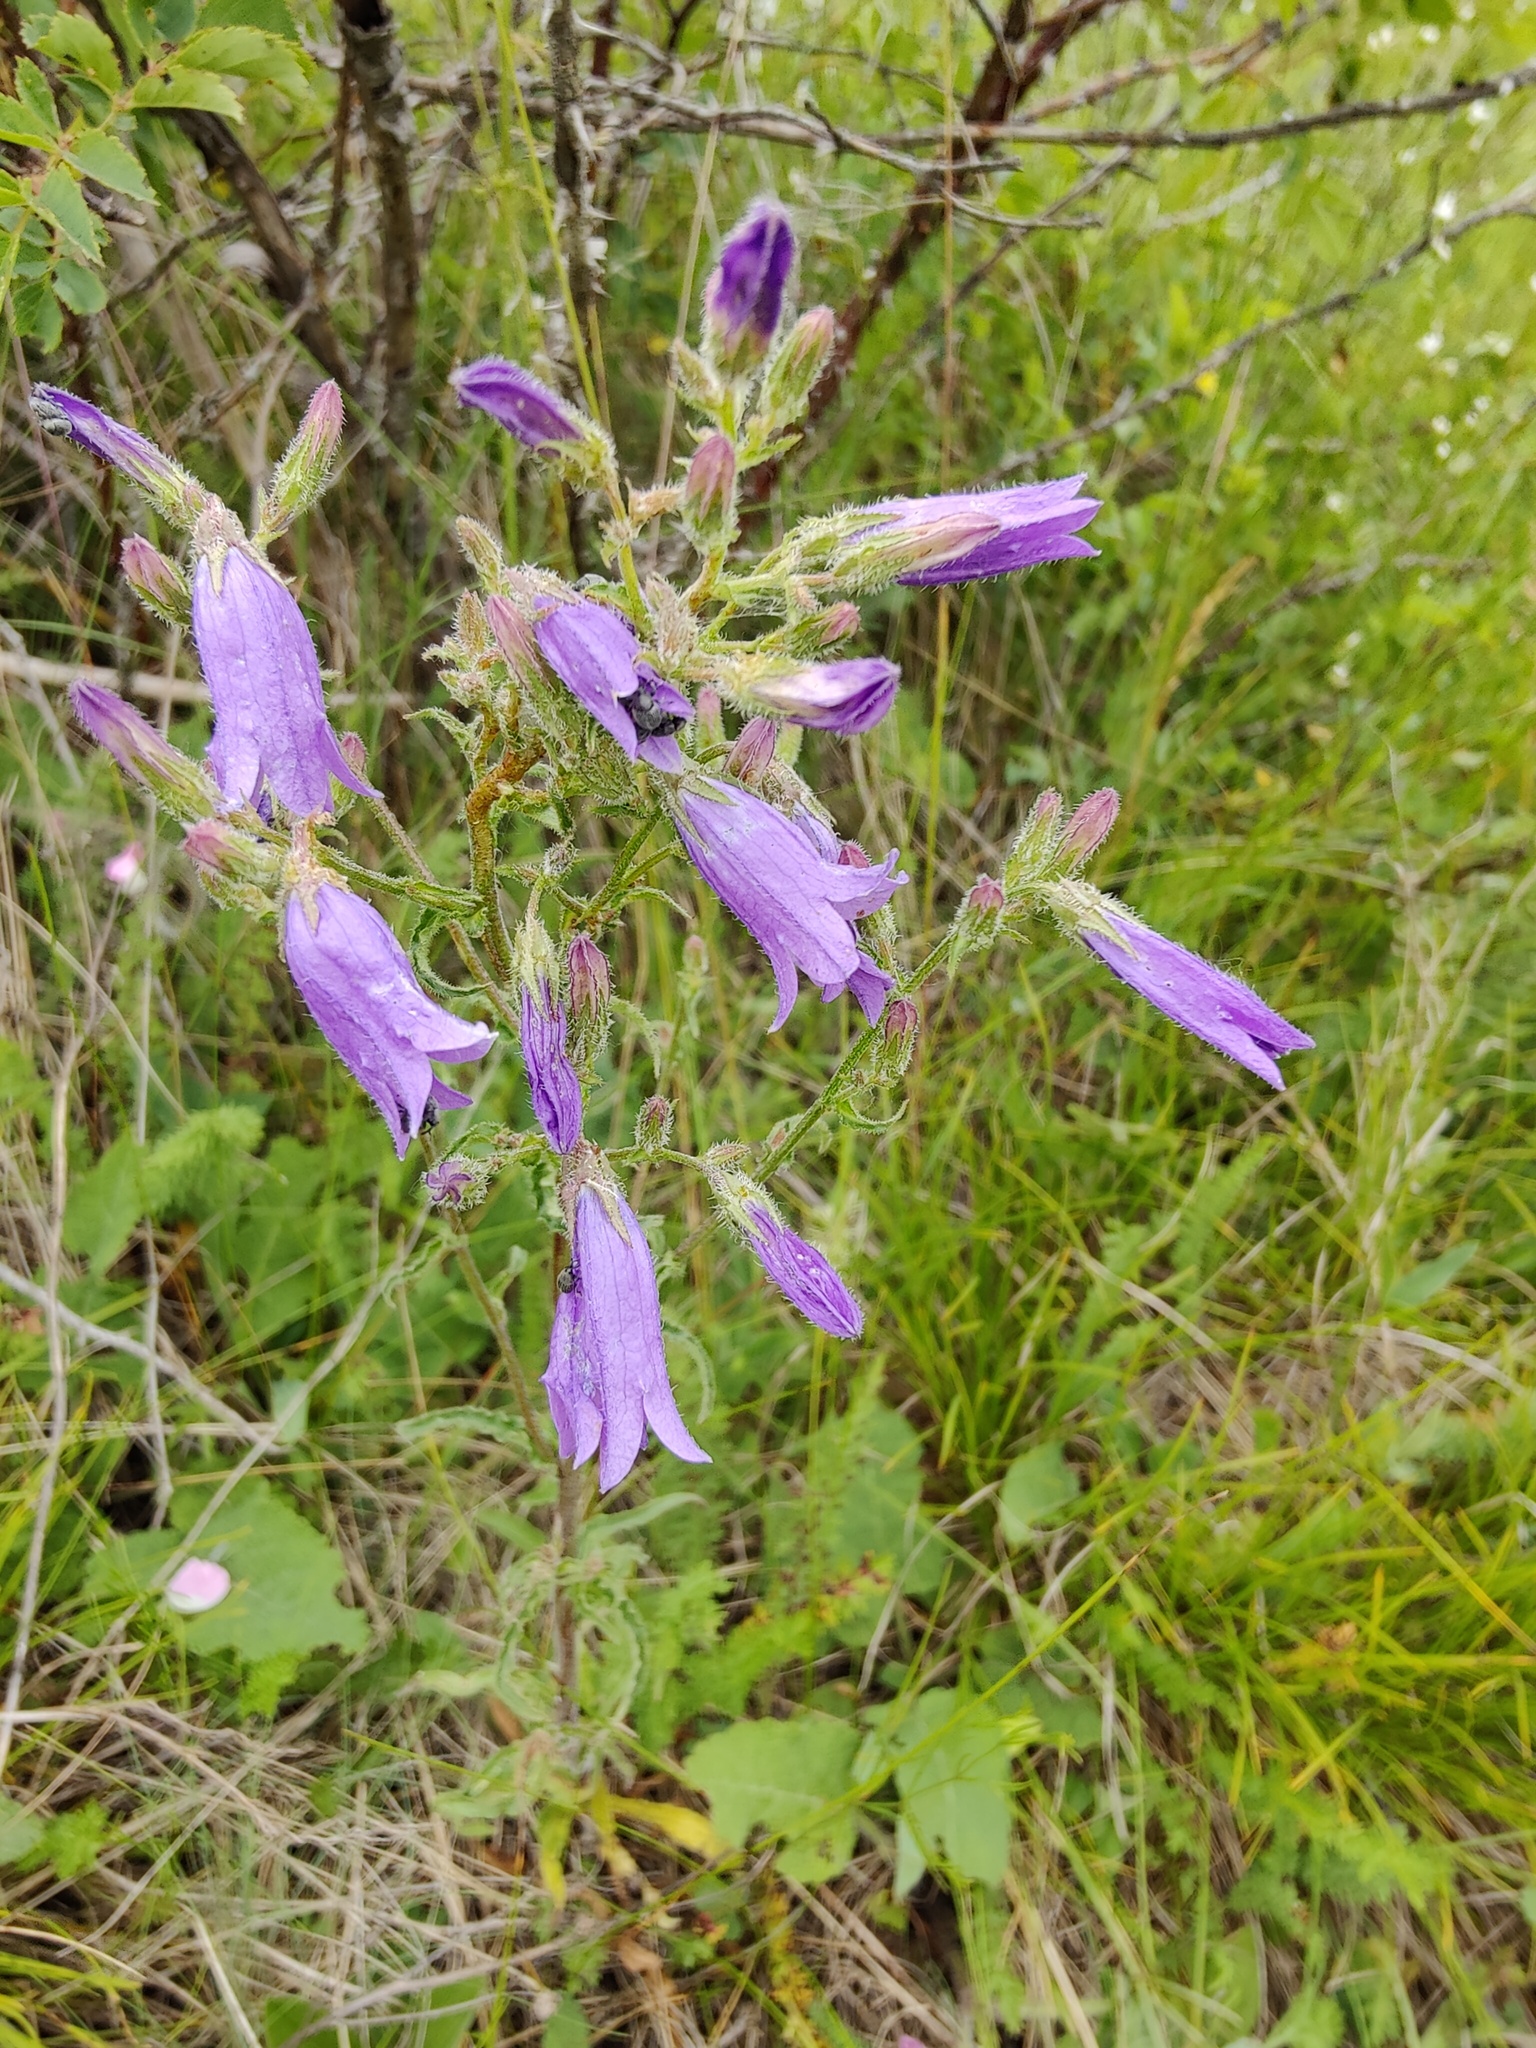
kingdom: Plantae
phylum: Tracheophyta
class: Magnoliopsida
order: Asterales
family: Campanulaceae
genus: Campanula
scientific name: Campanula sibirica
